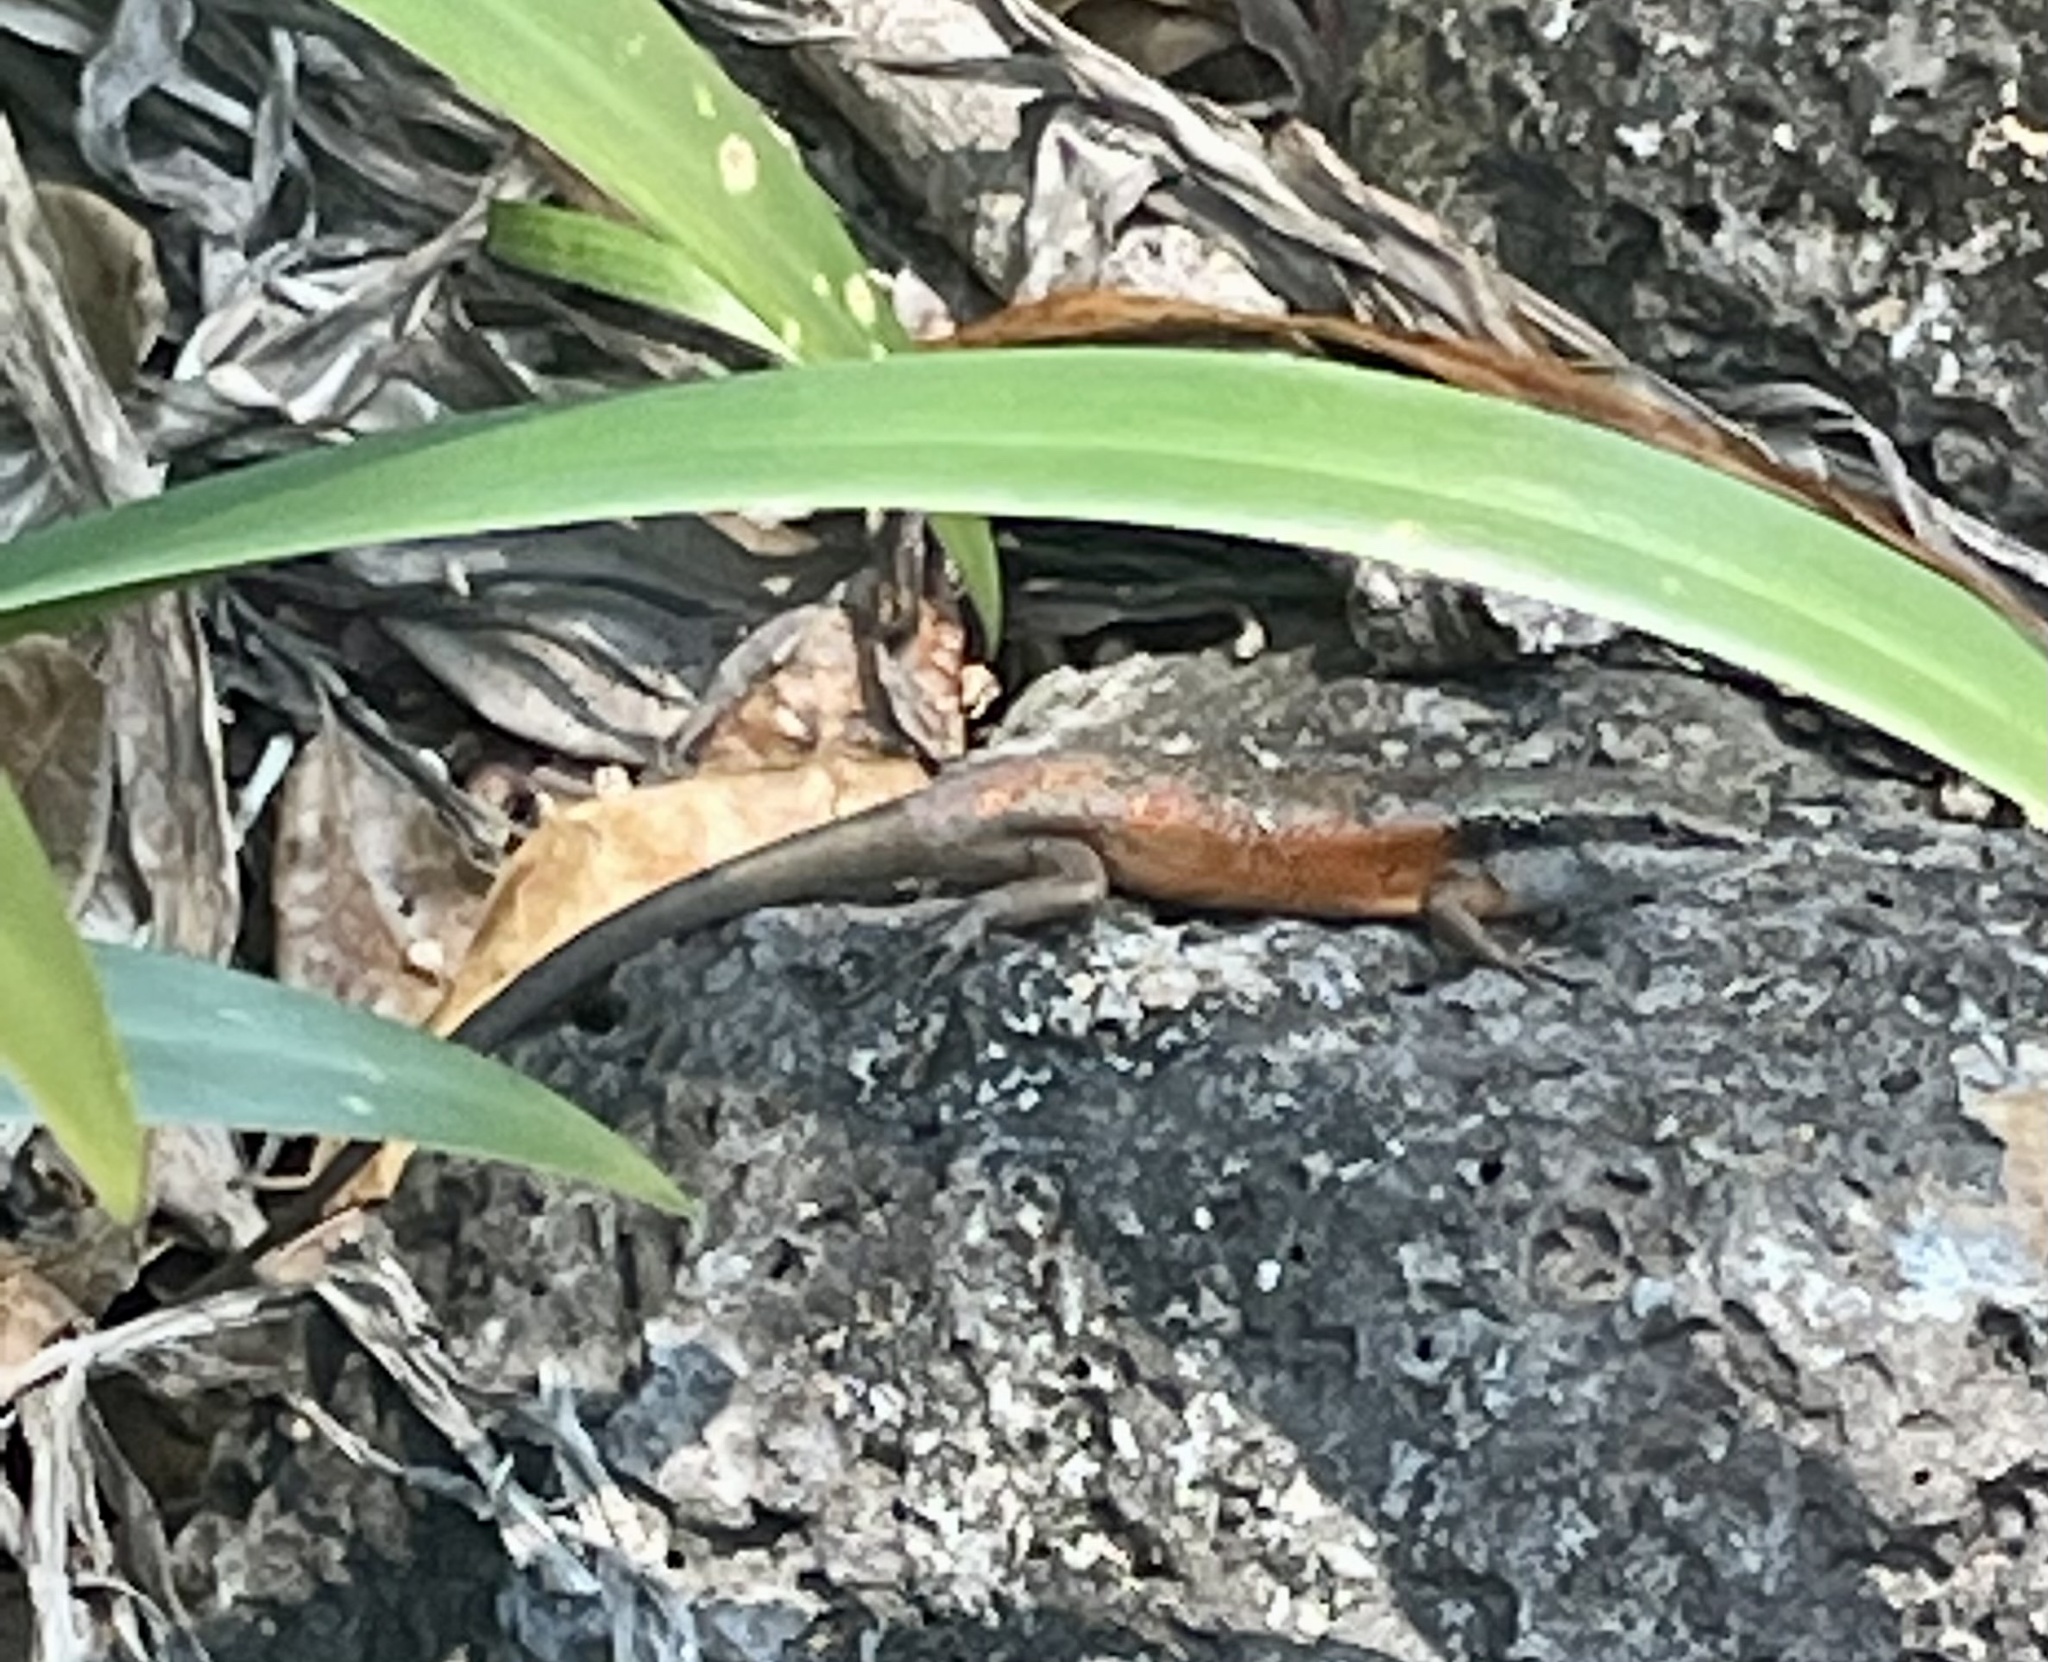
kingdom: Animalia
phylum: Chordata
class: Squamata
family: Scincidae
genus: Carlia
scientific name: Carlia longipes
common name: Closed-litter rainbow-skink
